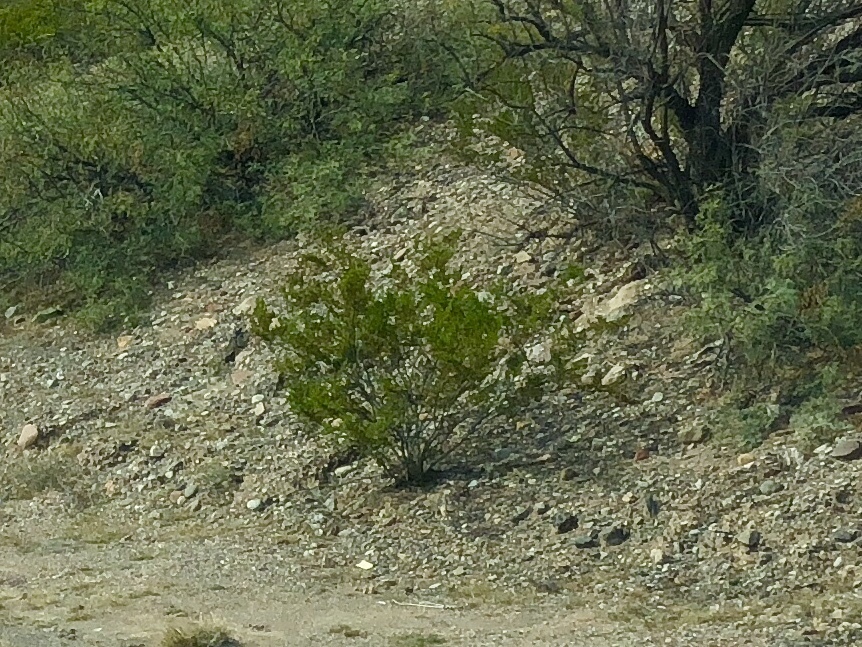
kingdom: Plantae
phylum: Tracheophyta
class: Magnoliopsida
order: Zygophyllales
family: Zygophyllaceae
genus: Larrea
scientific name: Larrea tridentata
